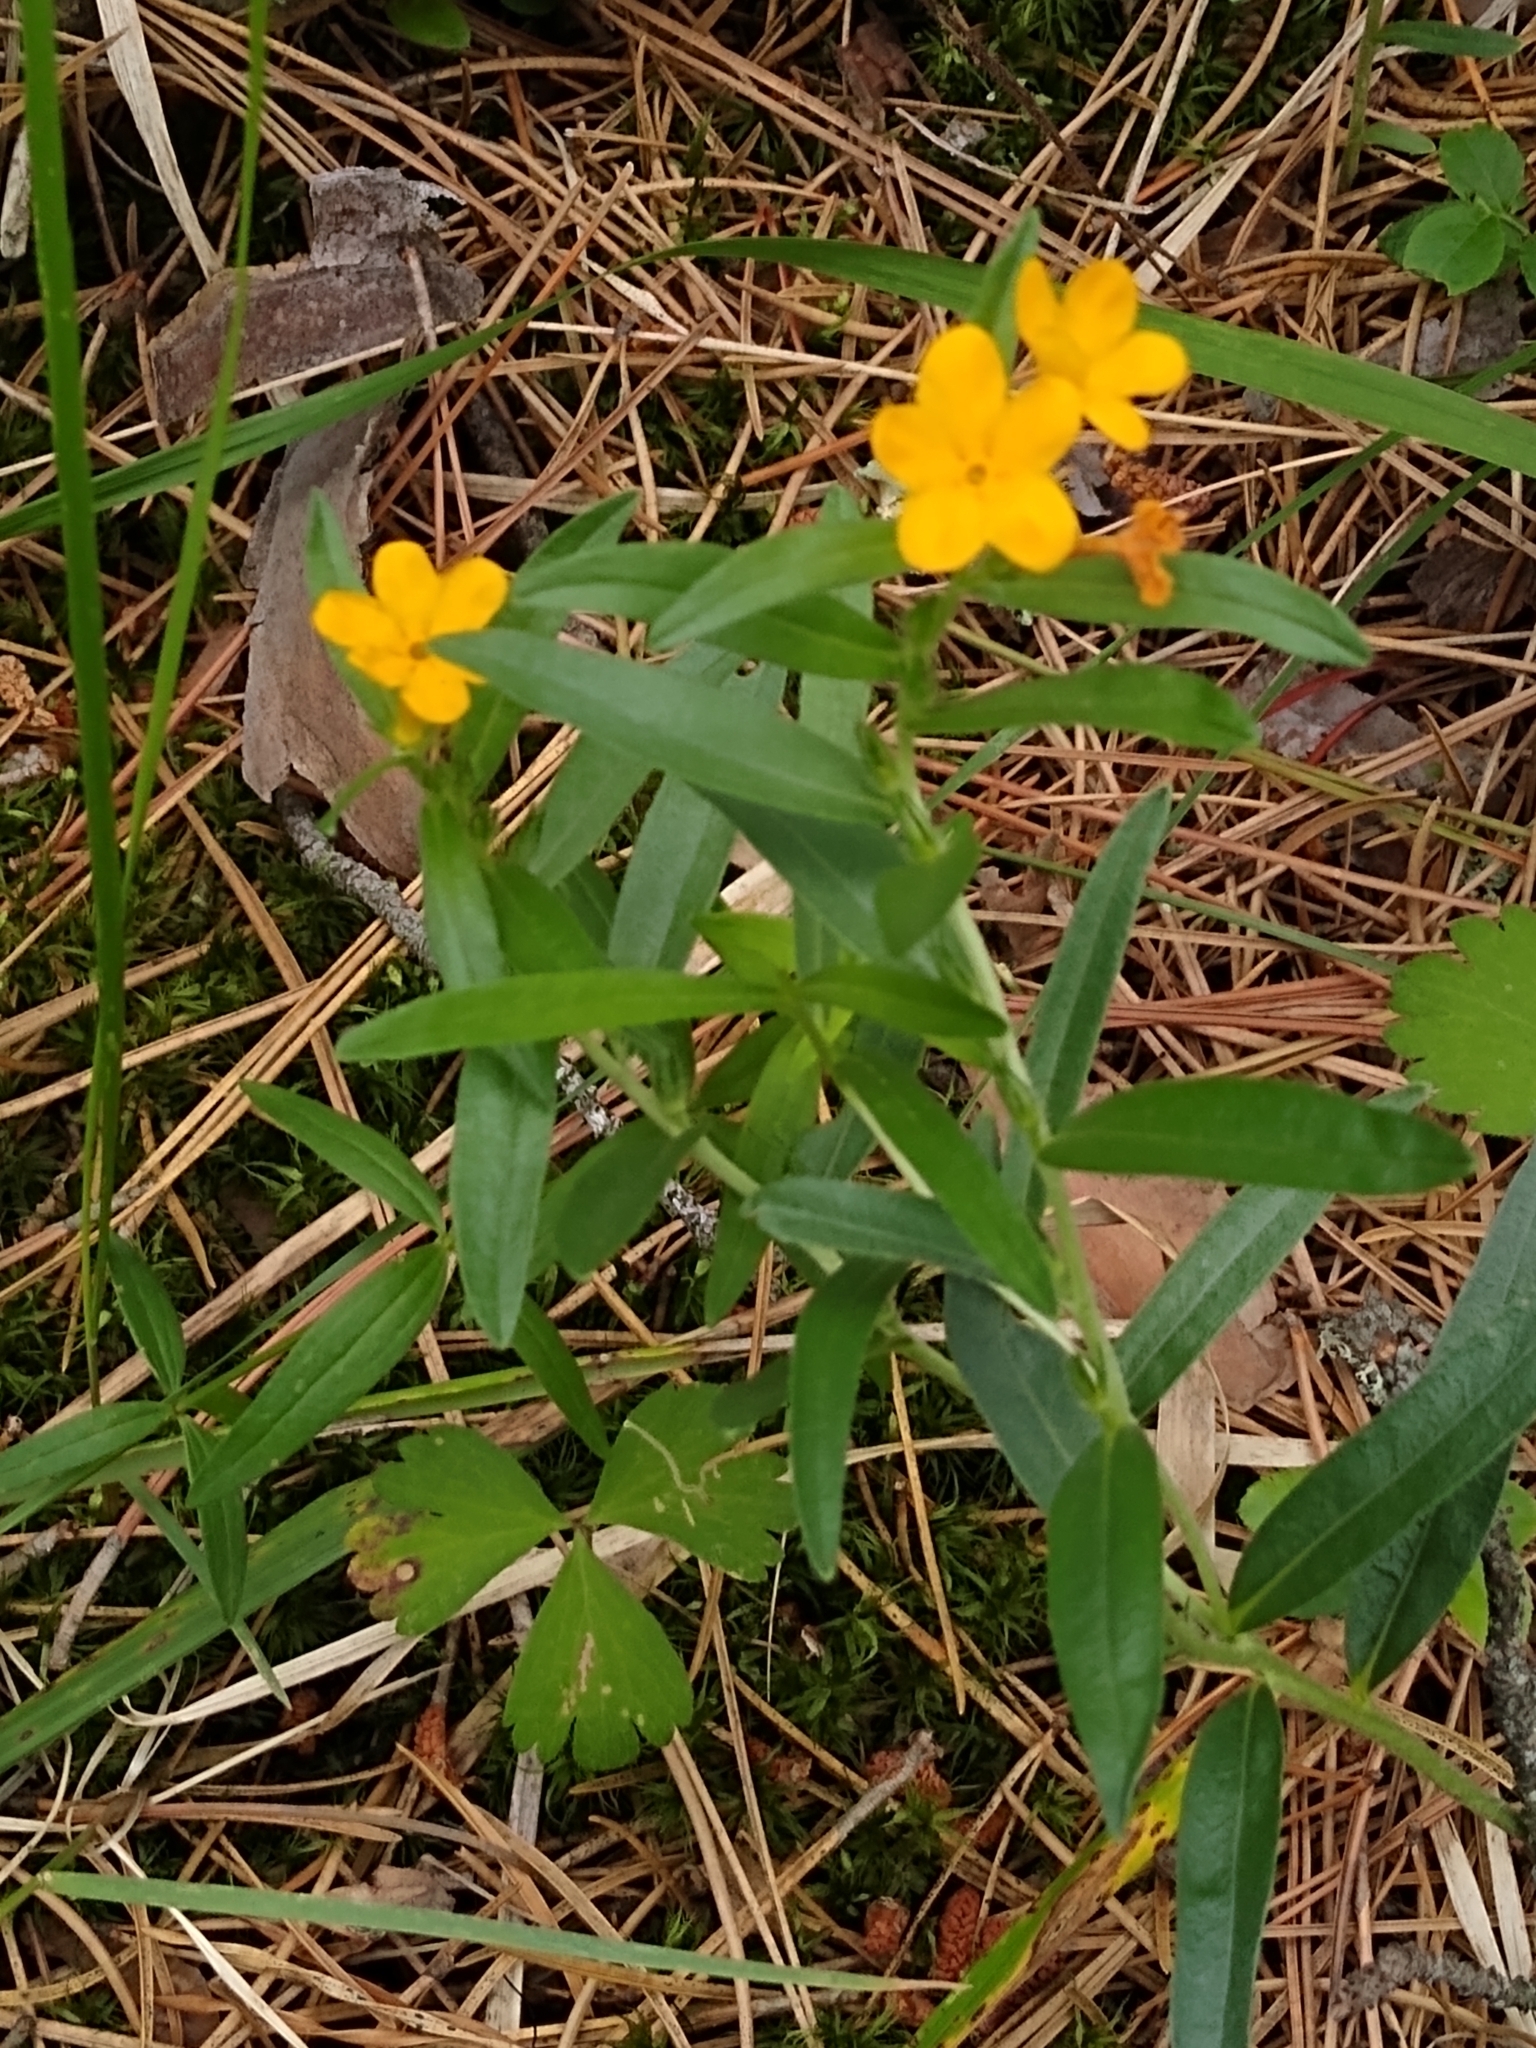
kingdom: Plantae
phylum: Tracheophyta
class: Magnoliopsida
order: Boraginales
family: Boraginaceae
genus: Lithospermum
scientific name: Lithospermum canescens
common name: Hoary puccoon
